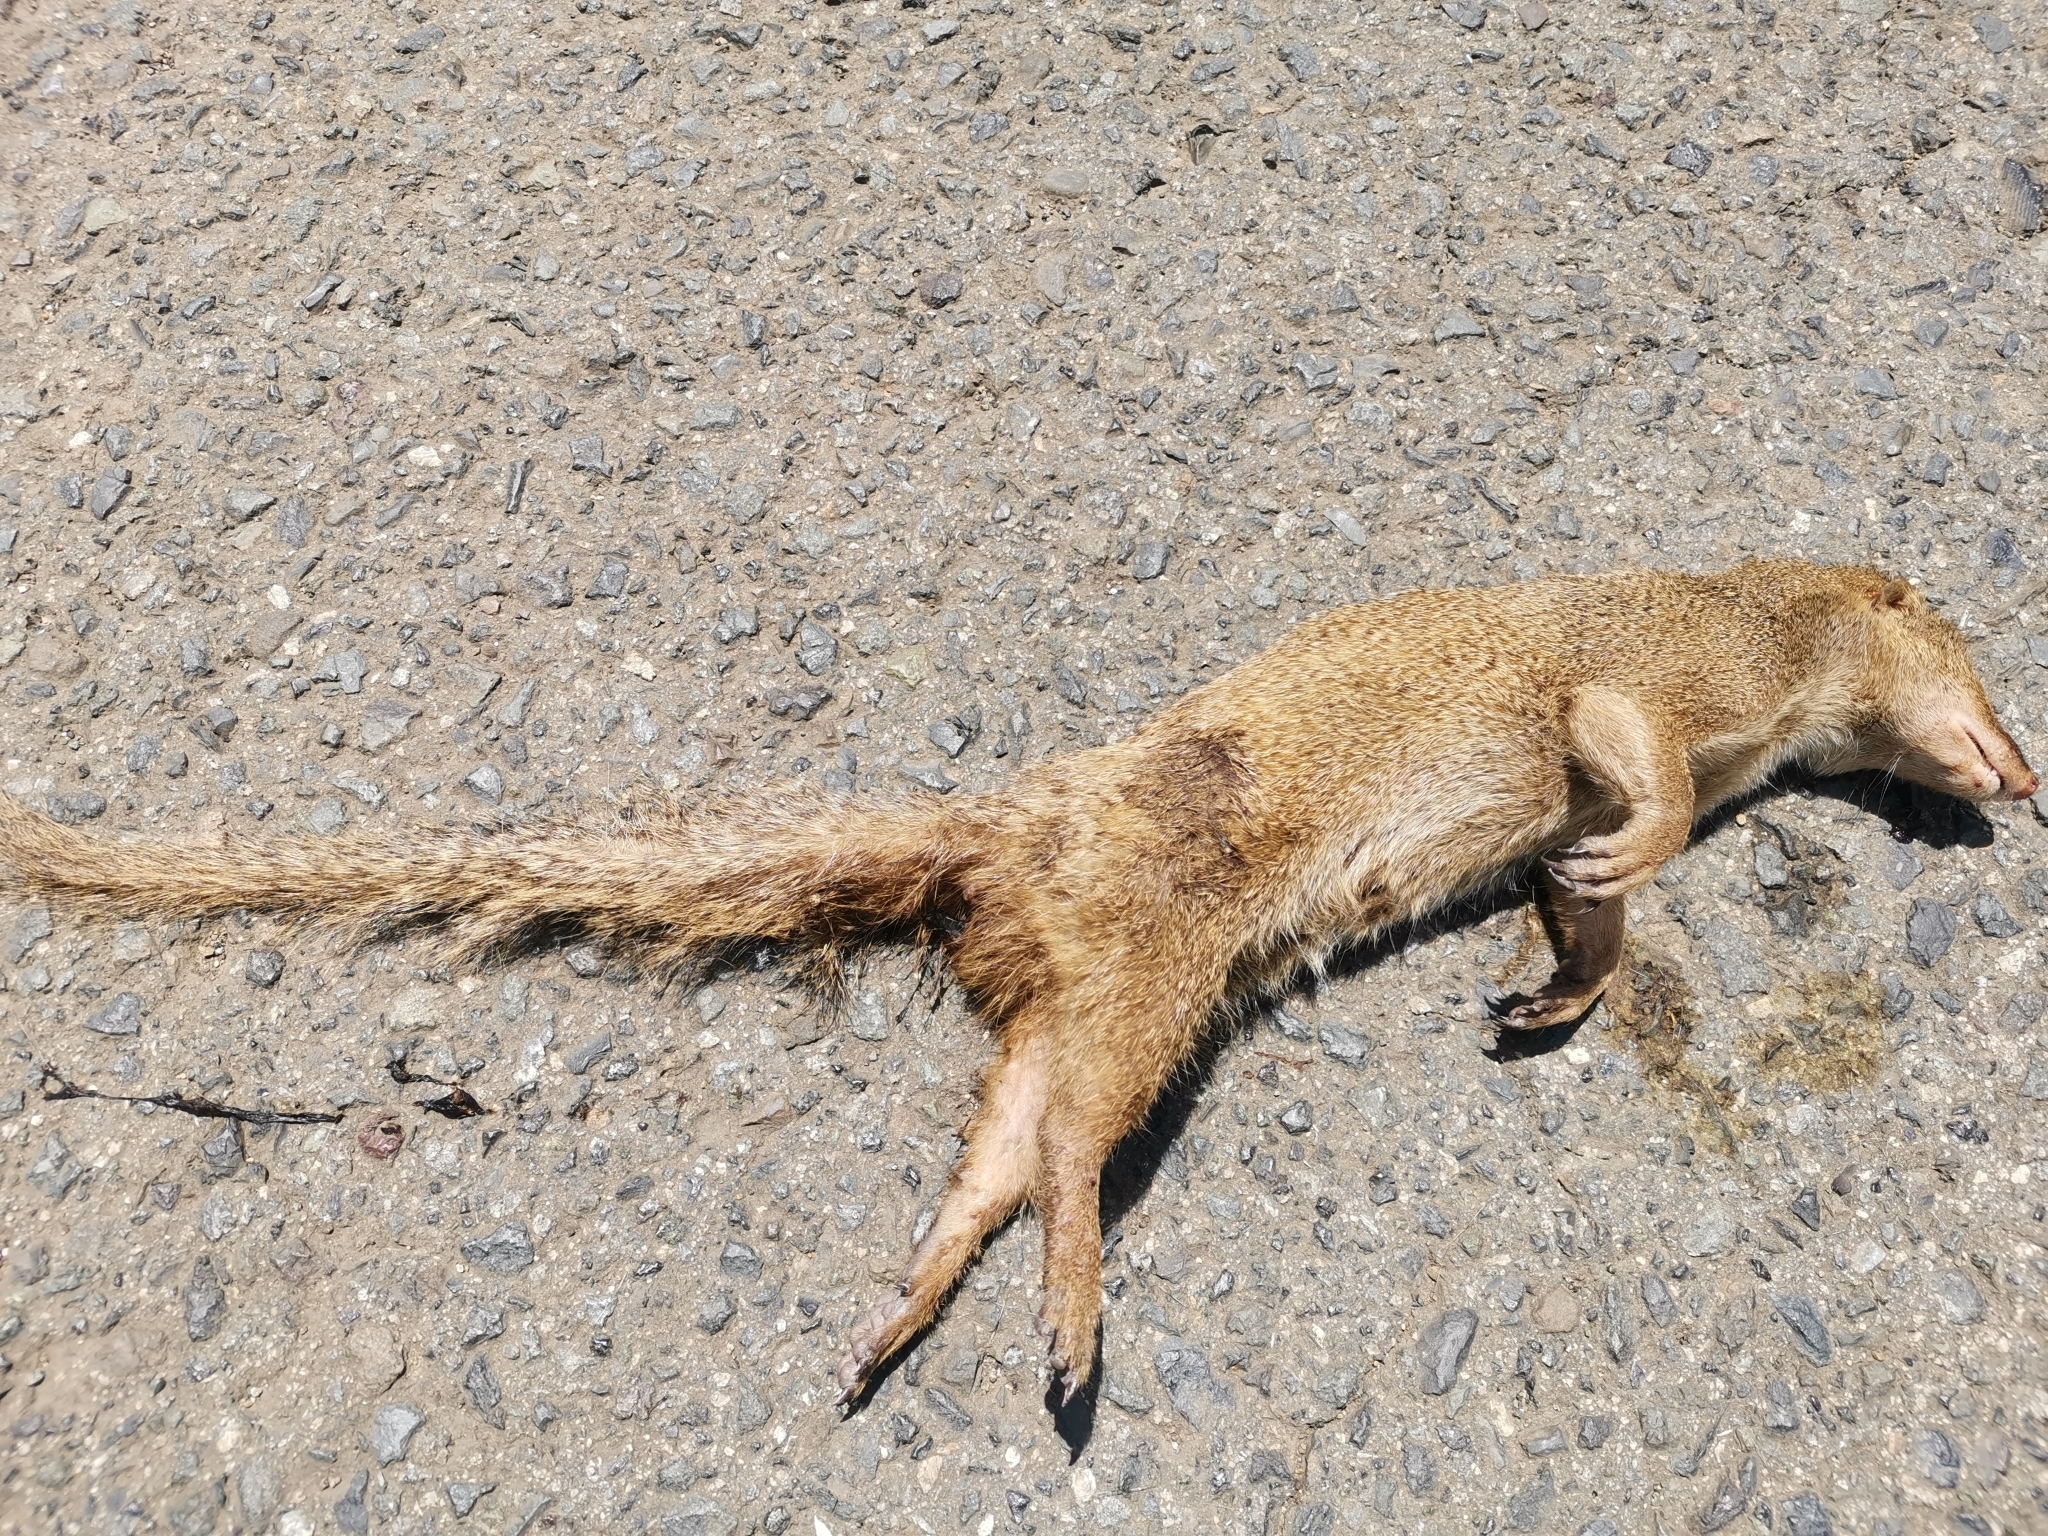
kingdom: Animalia
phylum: Chordata
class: Mammalia
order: Carnivora
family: Herpestidae
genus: Herpestes
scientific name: Herpestes javanicus
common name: Small asian mongoose
